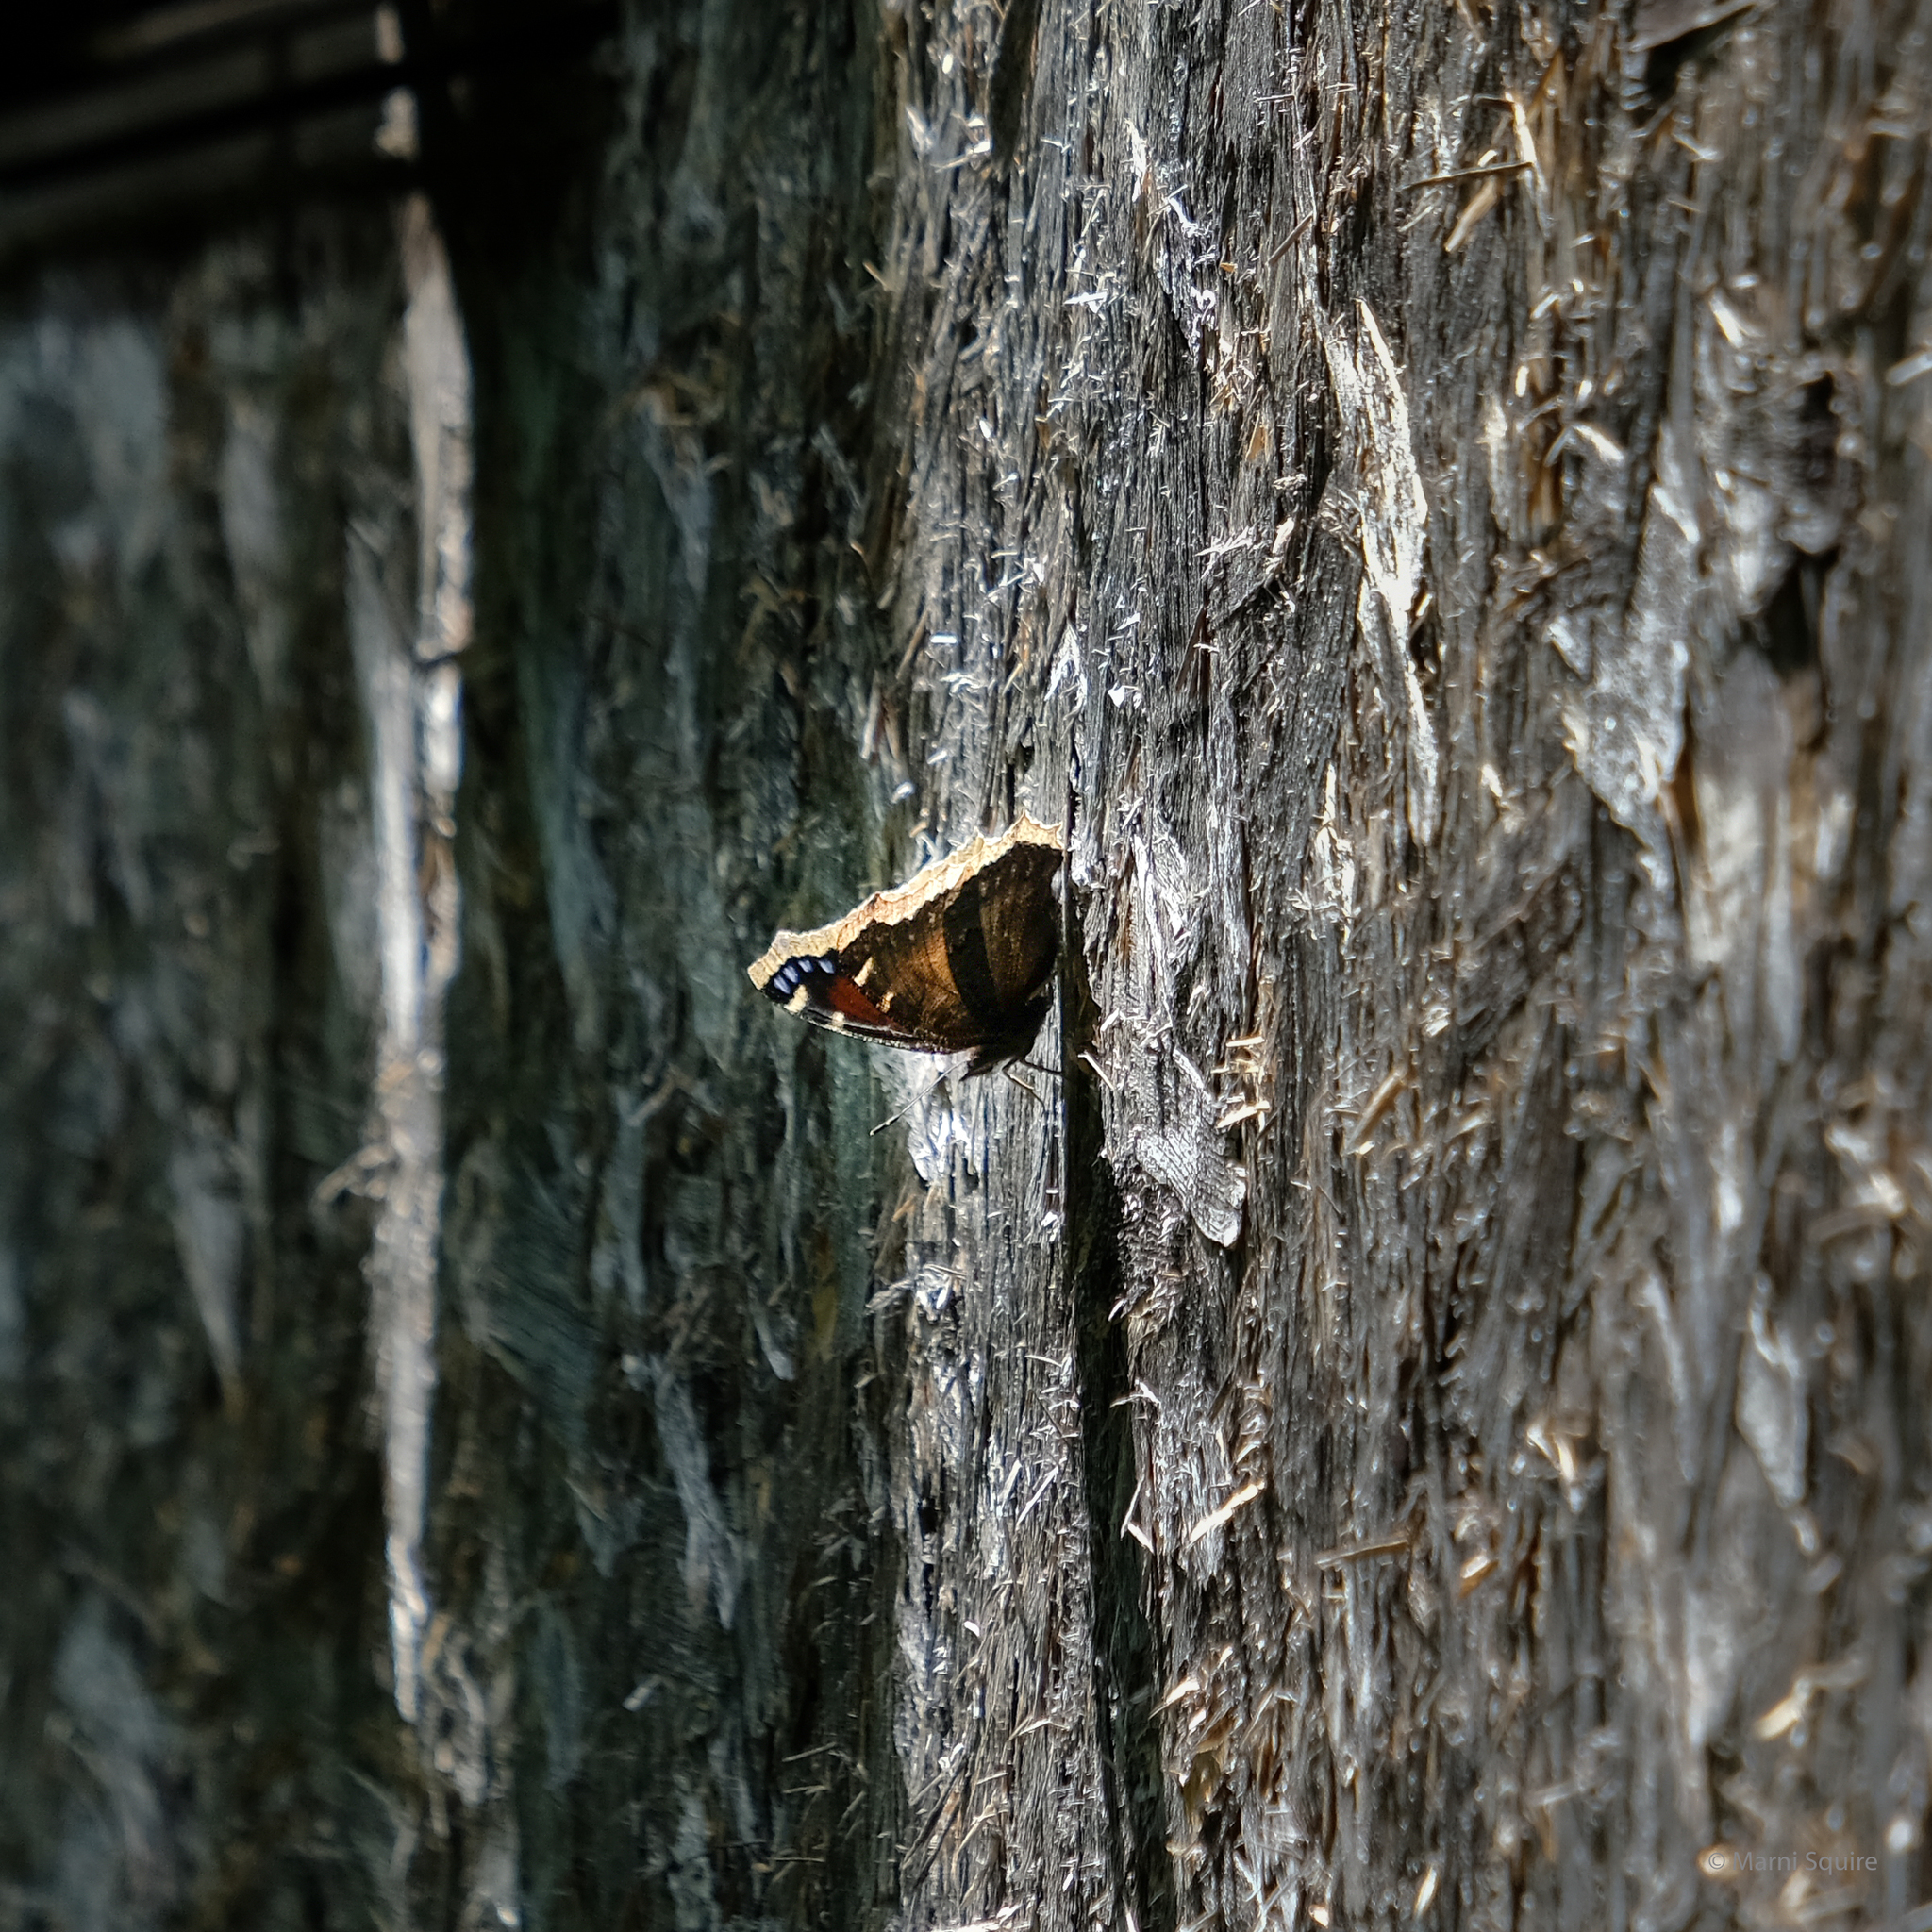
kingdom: Animalia
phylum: Arthropoda
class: Insecta
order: Lepidoptera
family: Nymphalidae
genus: Nymphalis
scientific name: Nymphalis antiopa
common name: Camberwell beauty
